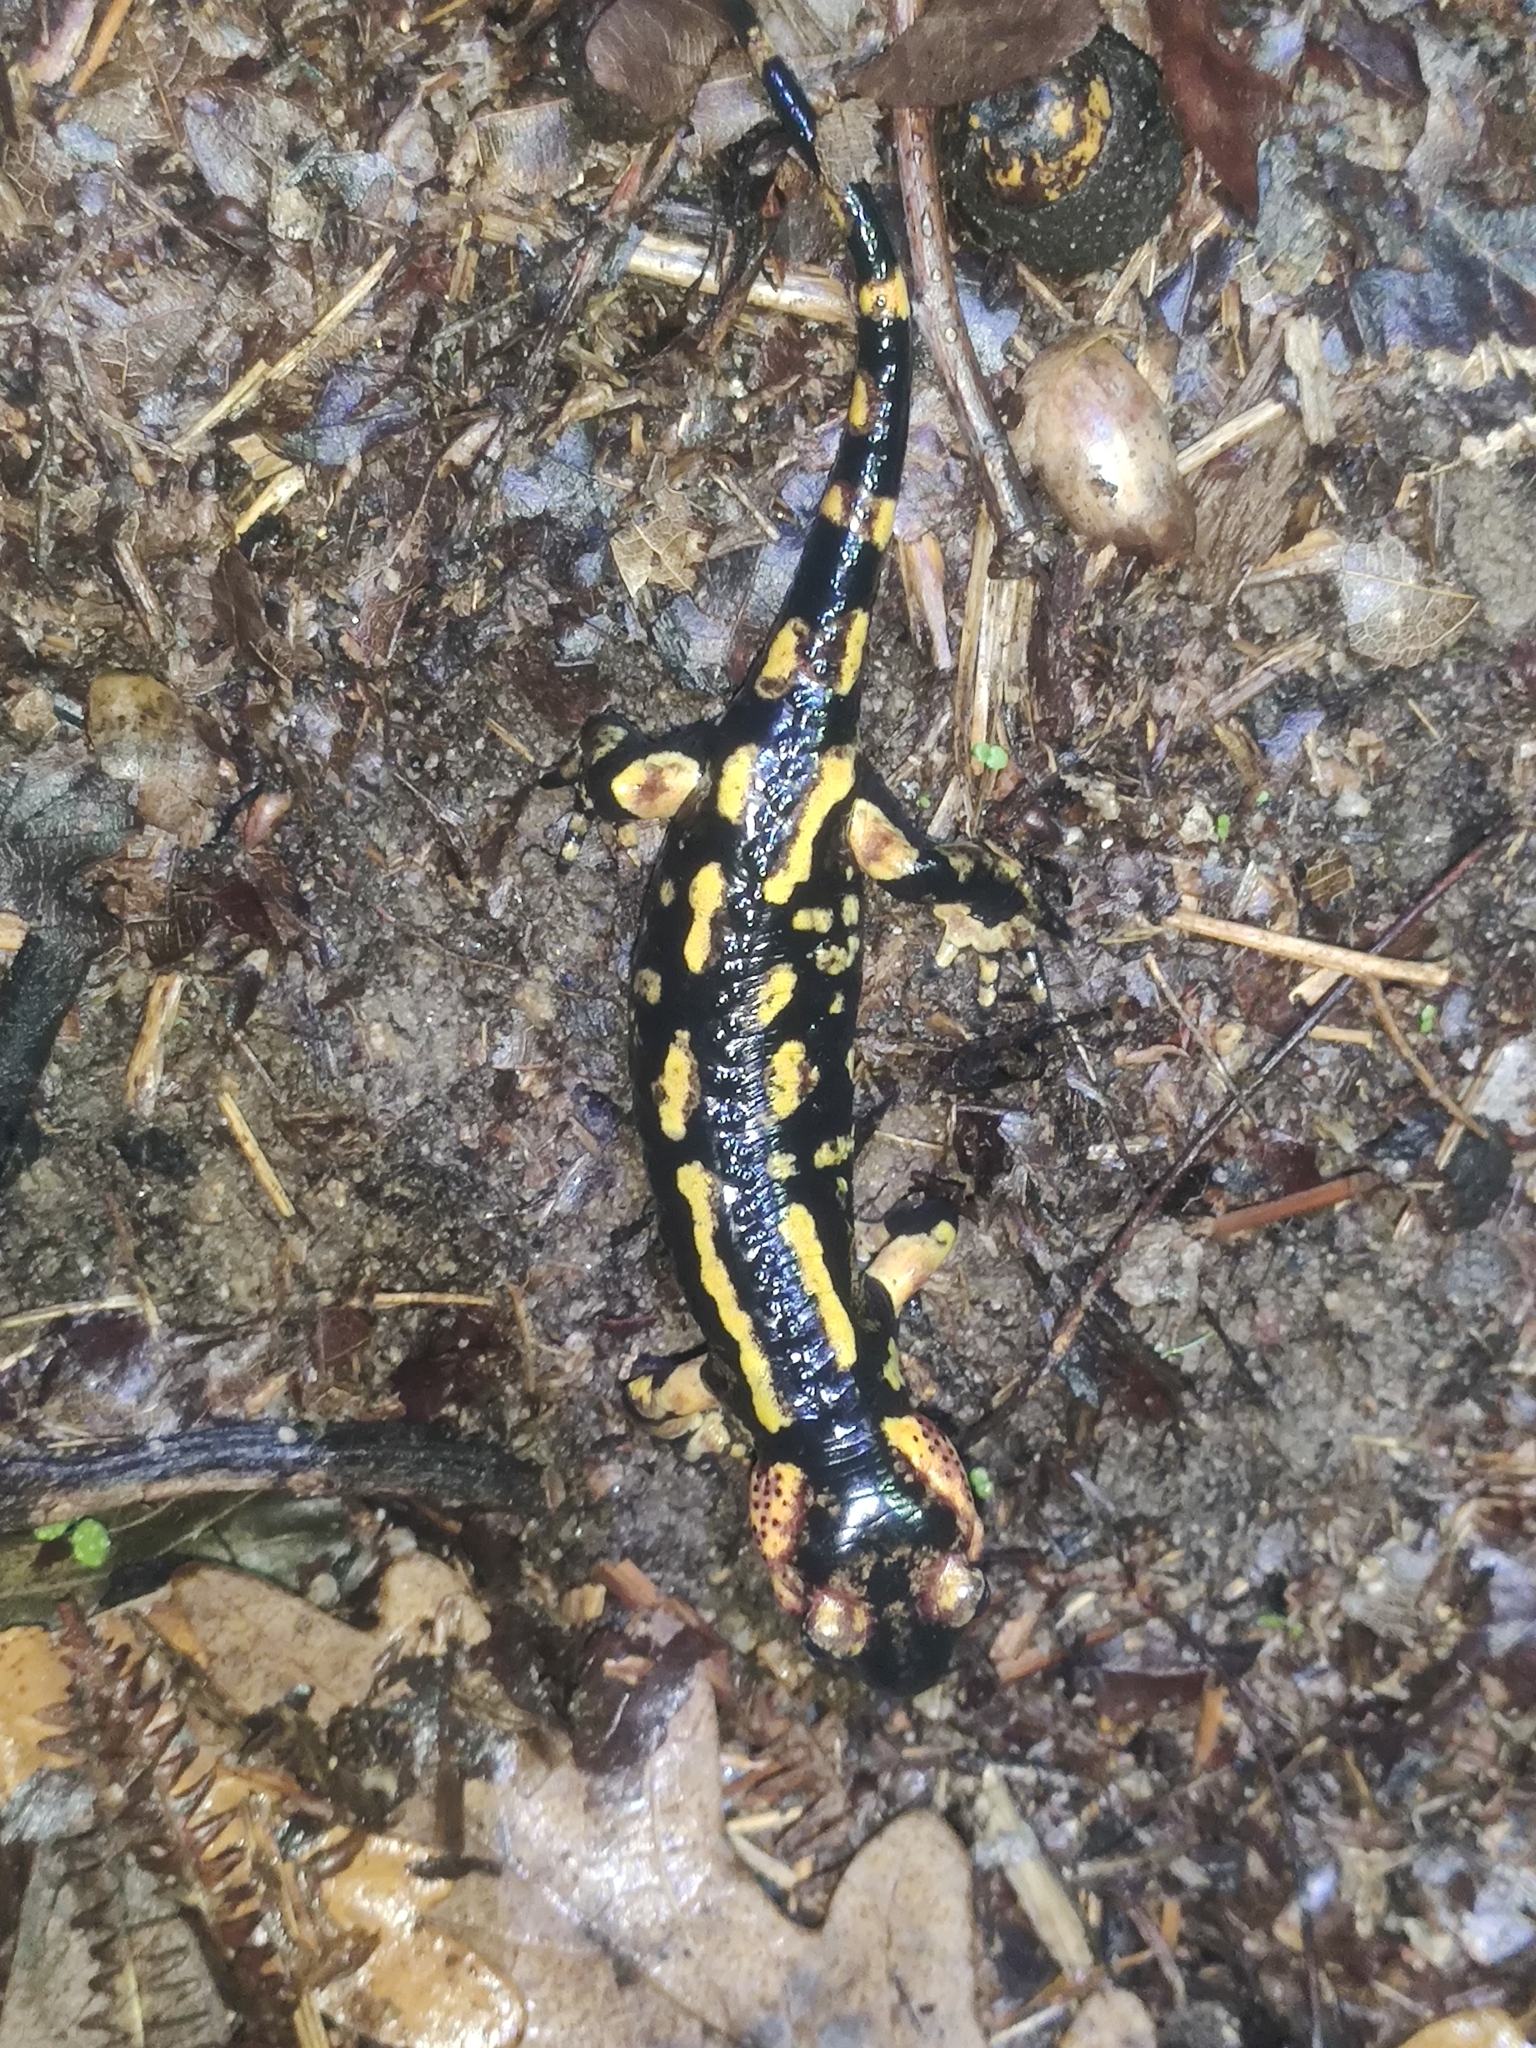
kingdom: Animalia
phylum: Chordata
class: Amphibia
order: Caudata
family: Salamandridae
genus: Salamandra
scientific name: Salamandra salamandra
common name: Fire salamander
